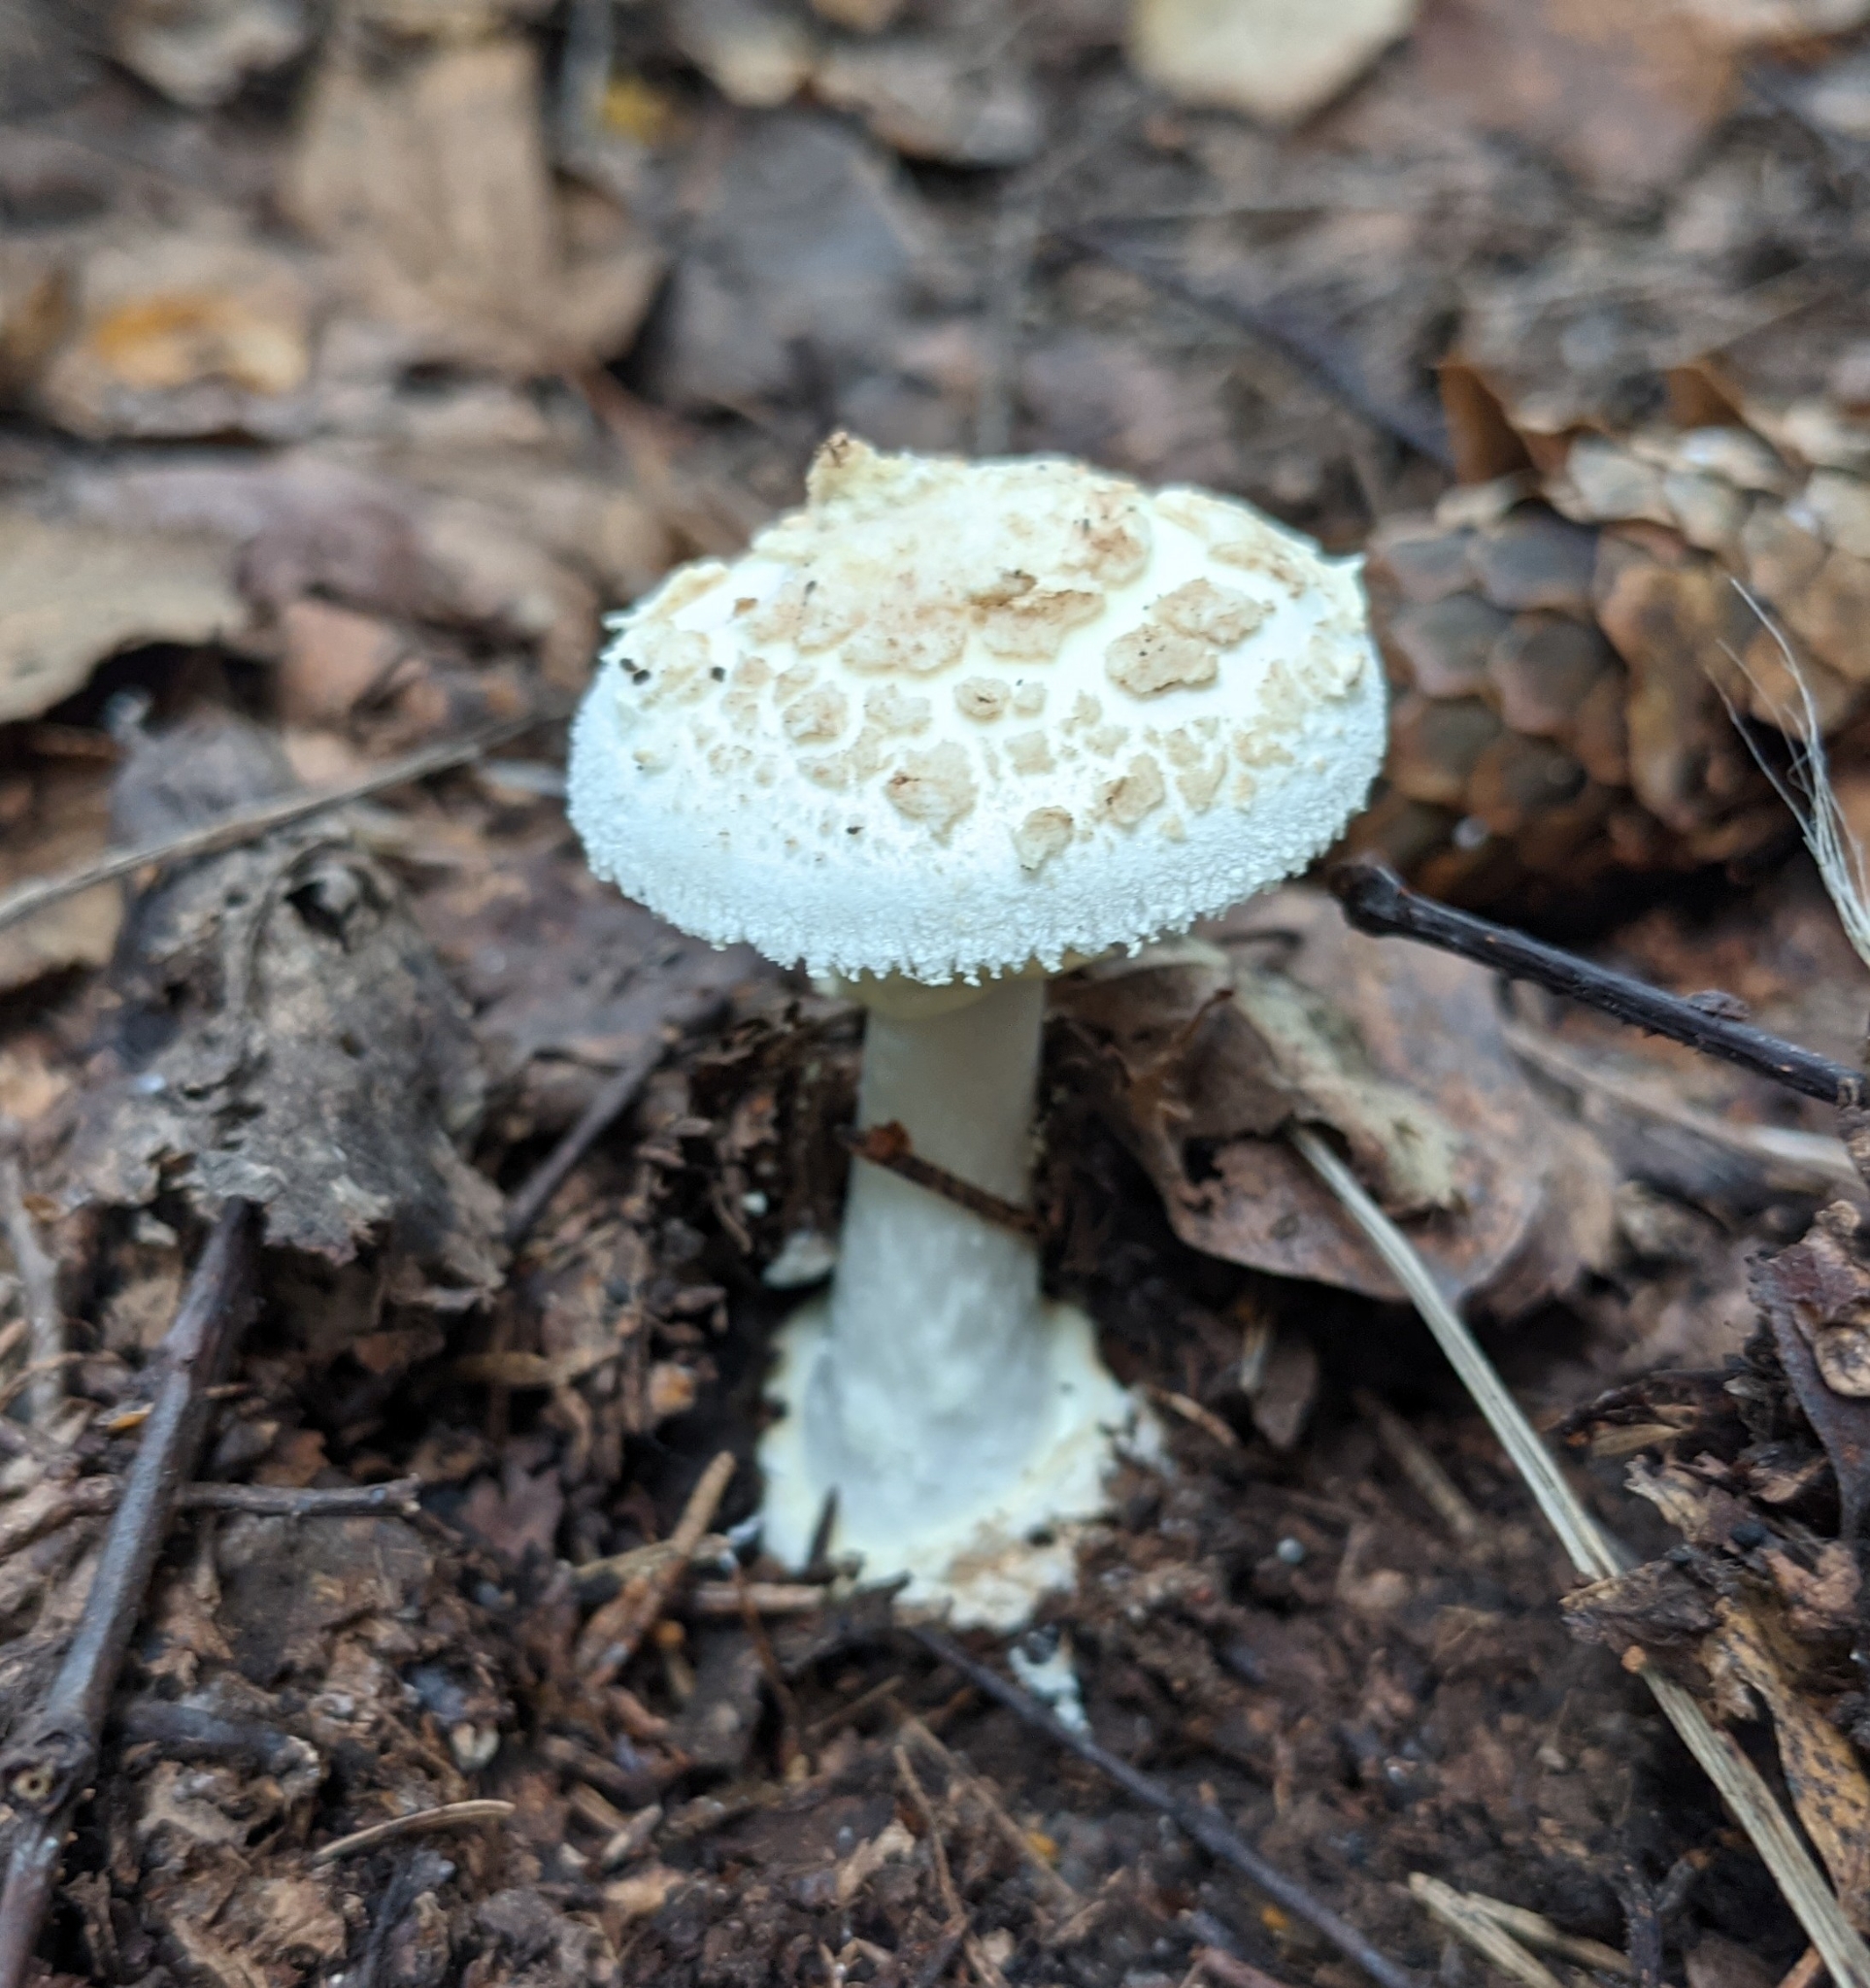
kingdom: Fungi
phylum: Basidiomycota
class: Agaricomycetes
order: Agaricales
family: Amanitaceae
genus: Amanita
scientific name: Amanita citrina
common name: False death-cap
